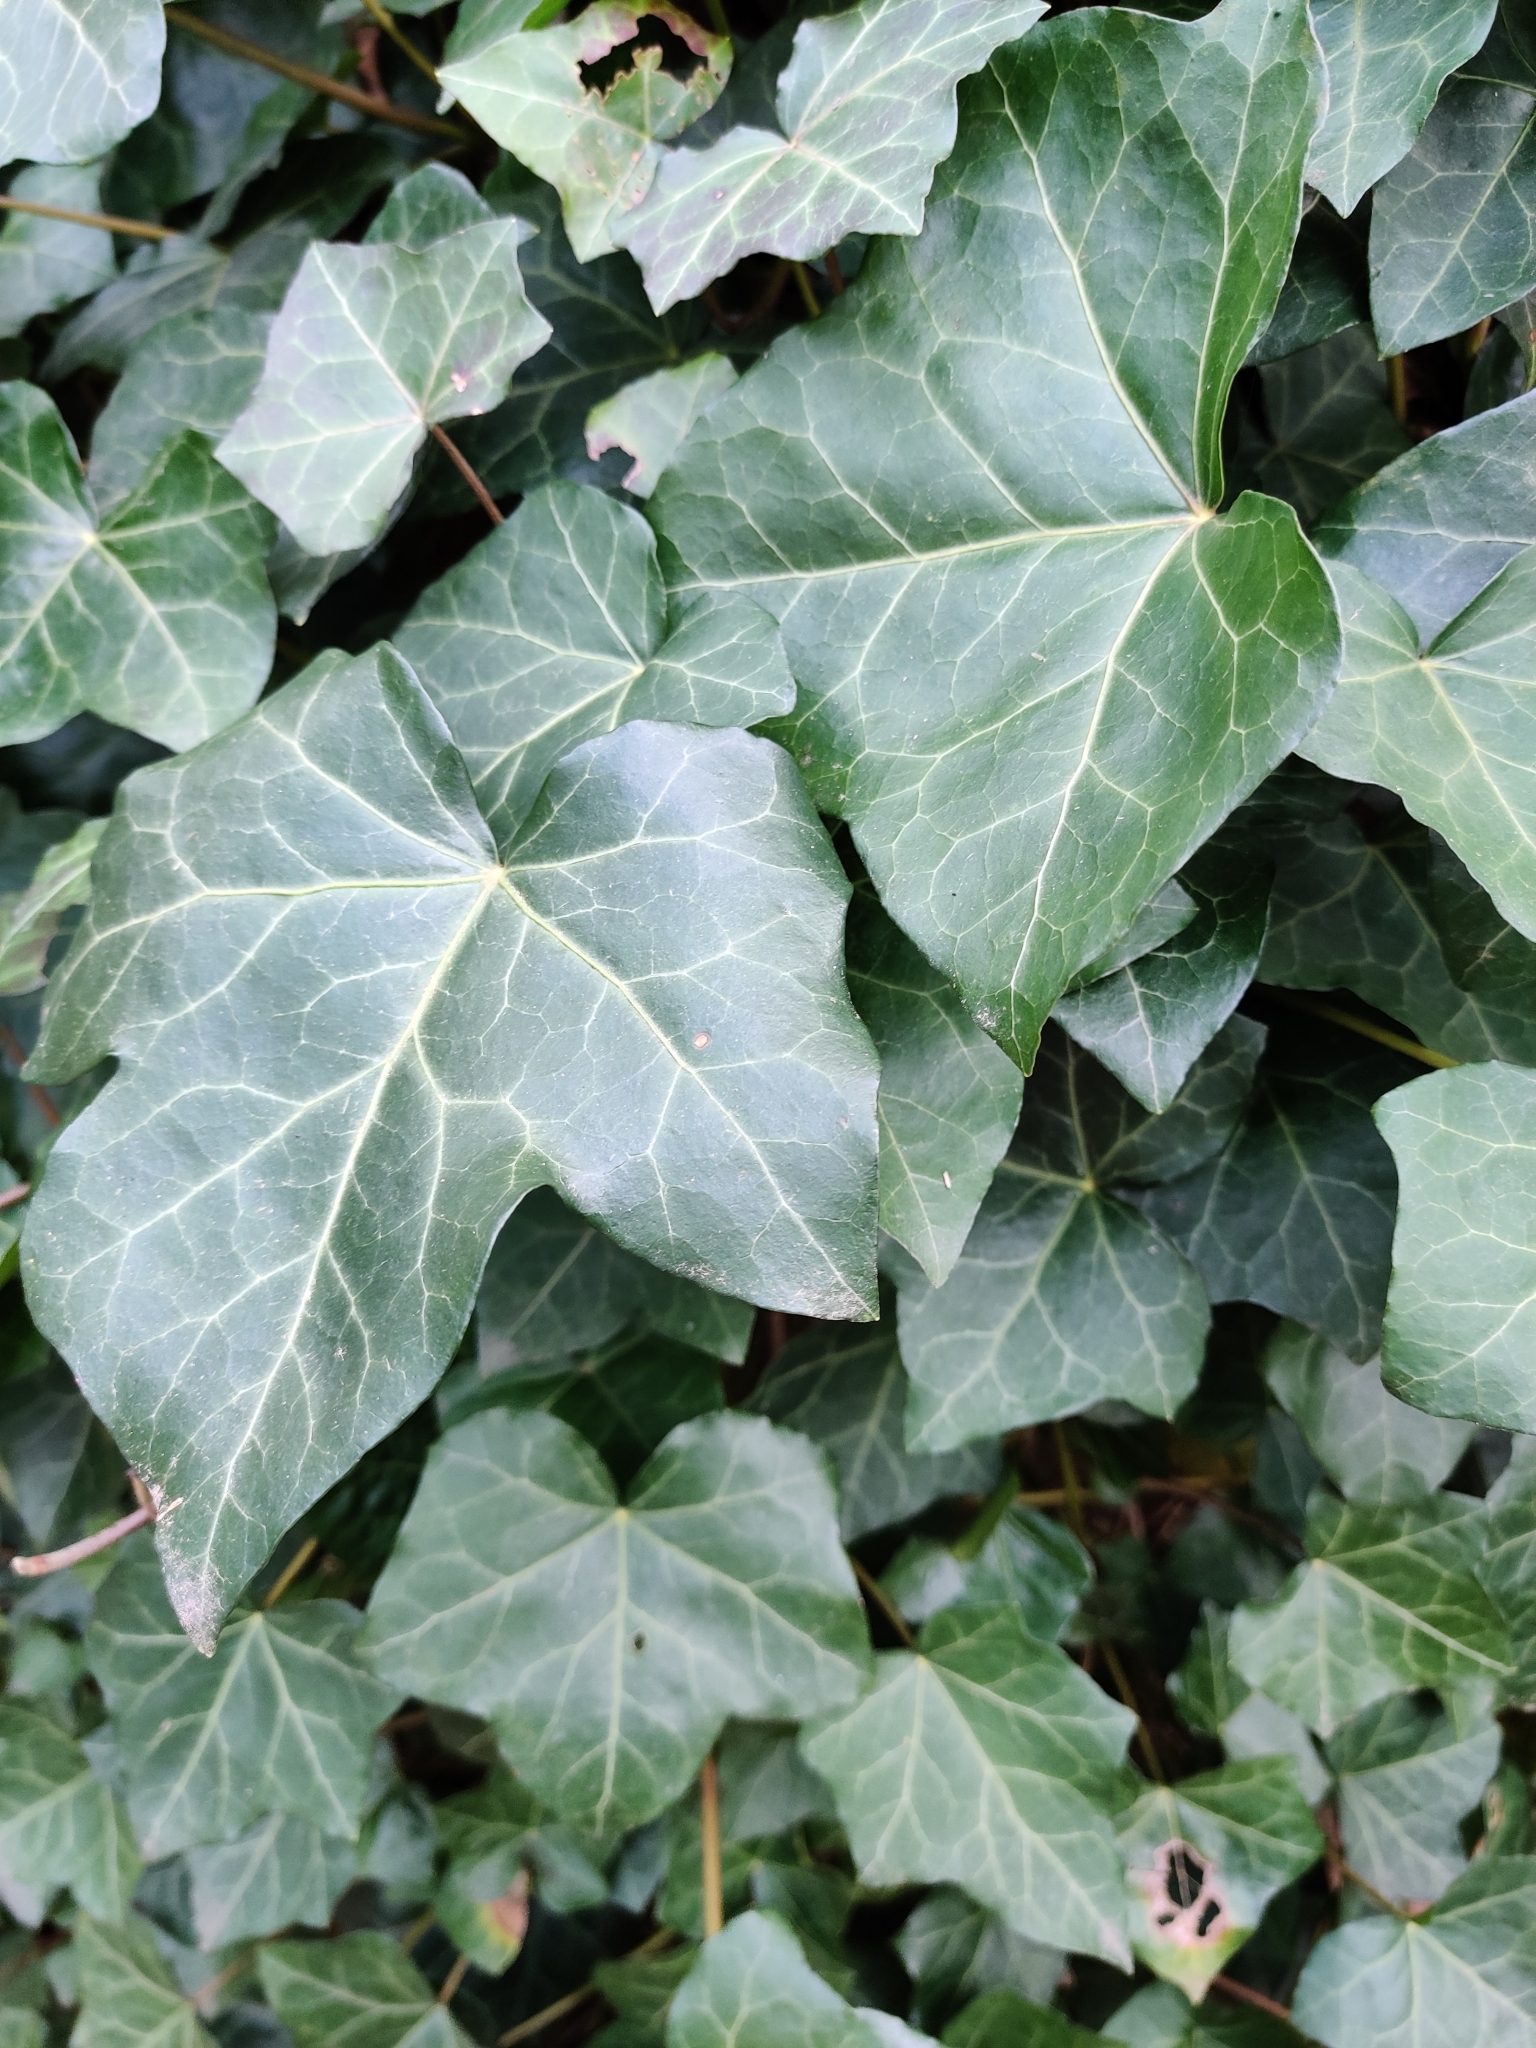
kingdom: Plantae
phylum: Tracheophyta
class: Magnoliopsida
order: Apiales
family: Araliaceae
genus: Hedera
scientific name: Hedera helix
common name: Ivy
